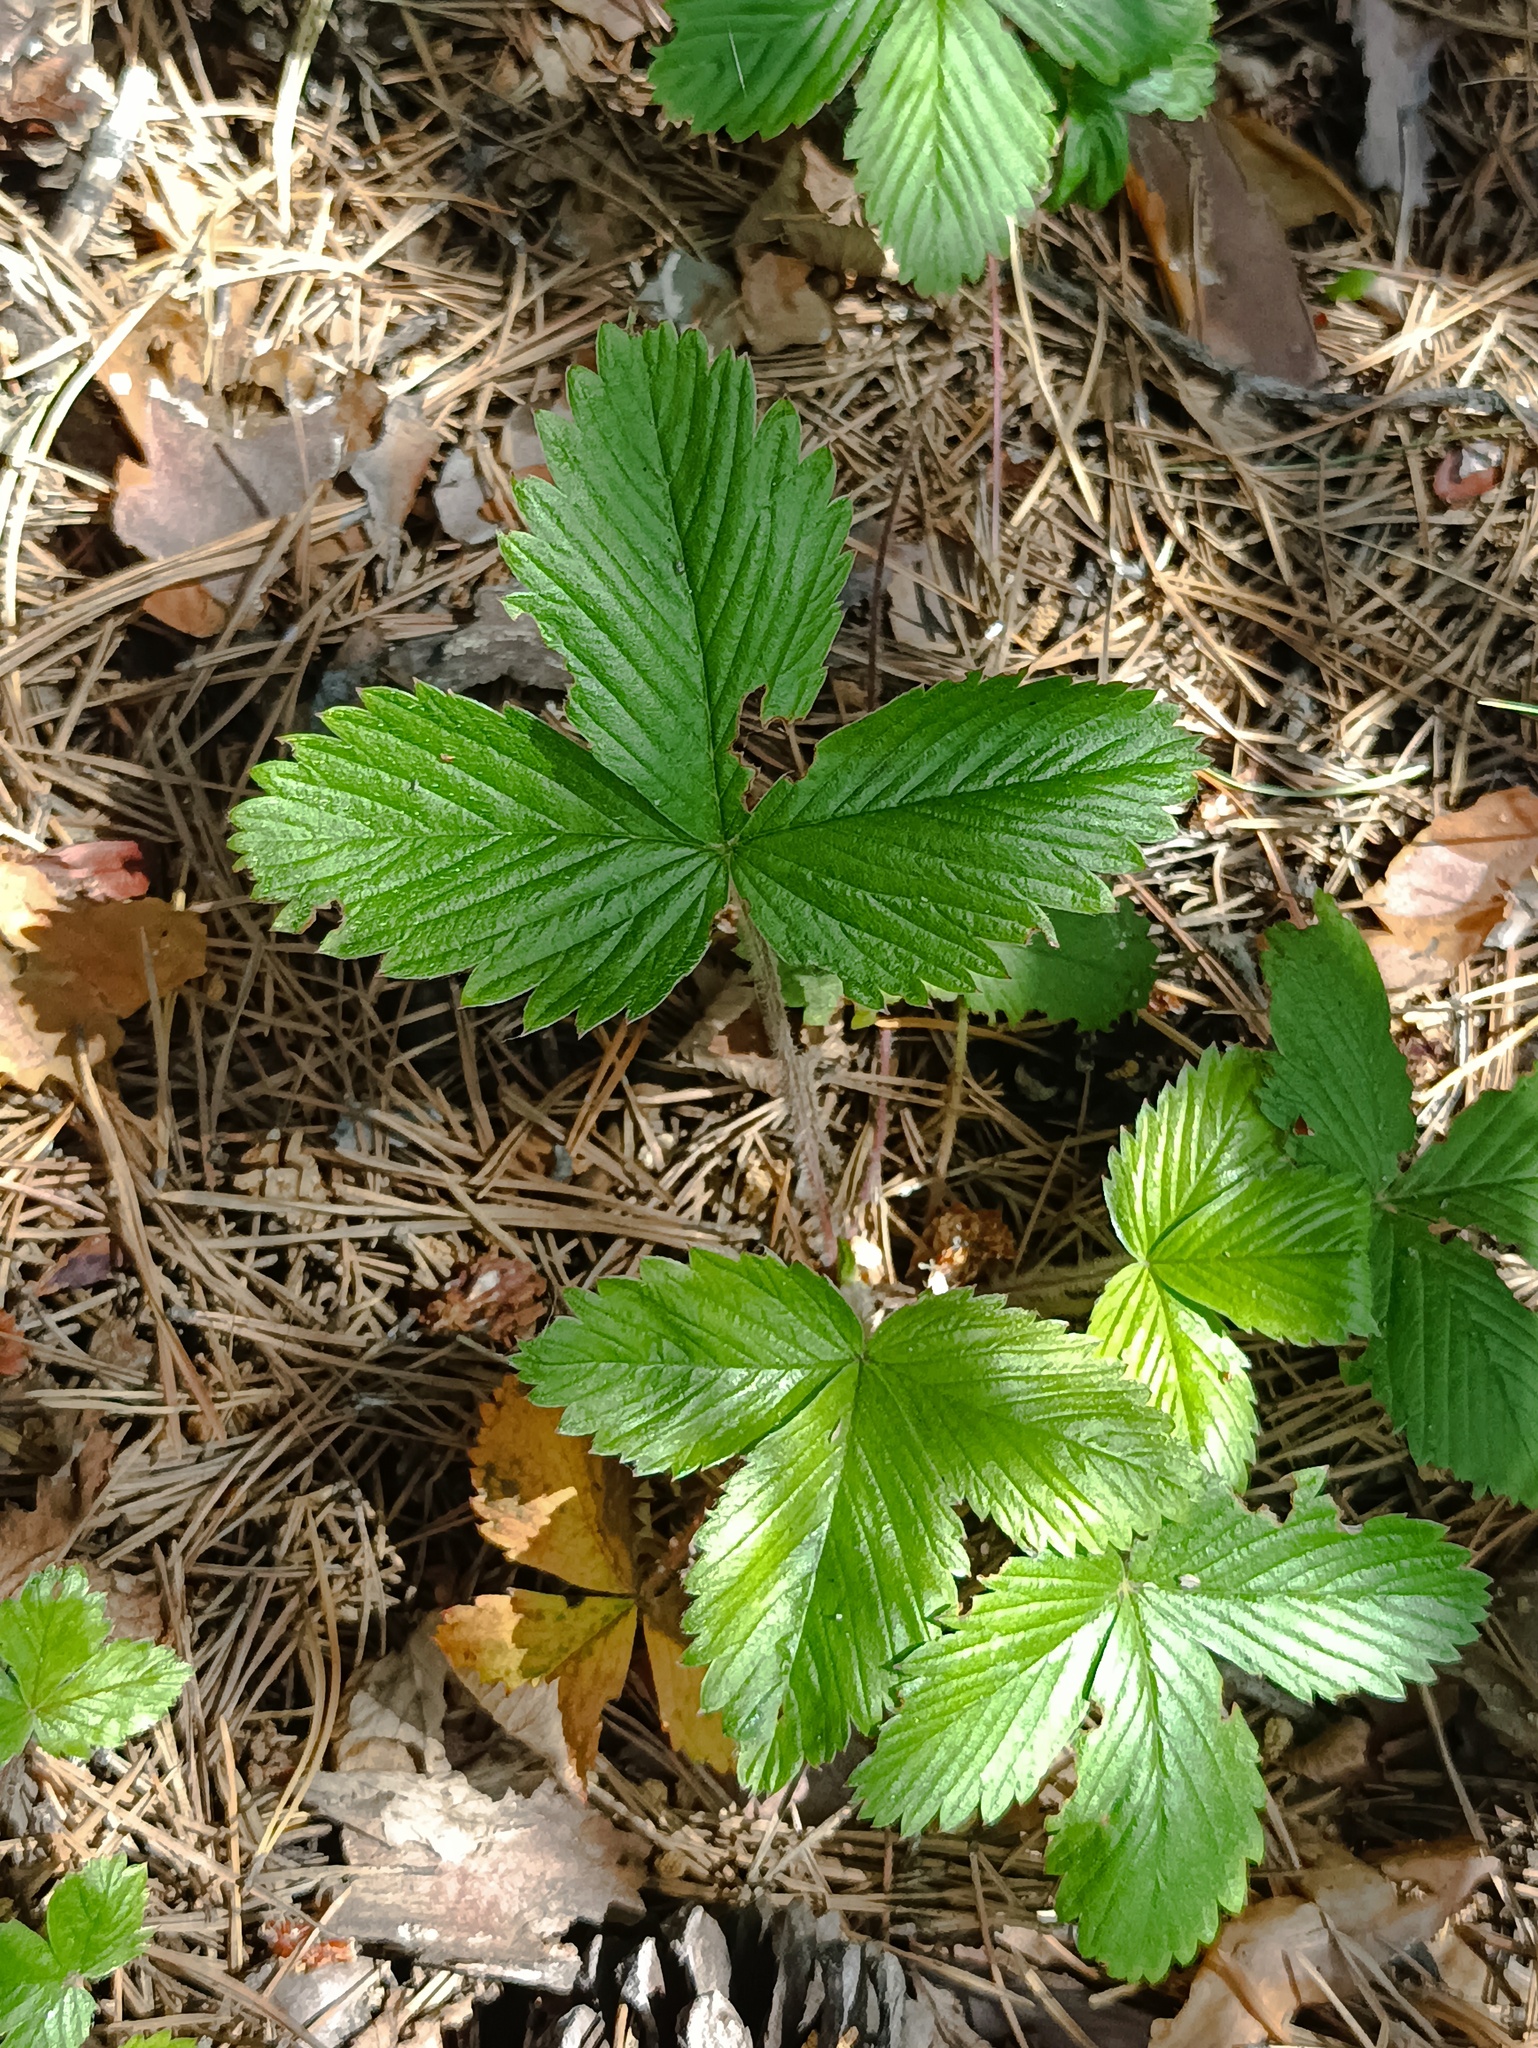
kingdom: Plantae
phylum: Tracheophyta
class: Magnoliopsida
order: Rosales
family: Rosaceae
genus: Fragaria
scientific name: Fragaria vesca
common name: Wild strawberry
